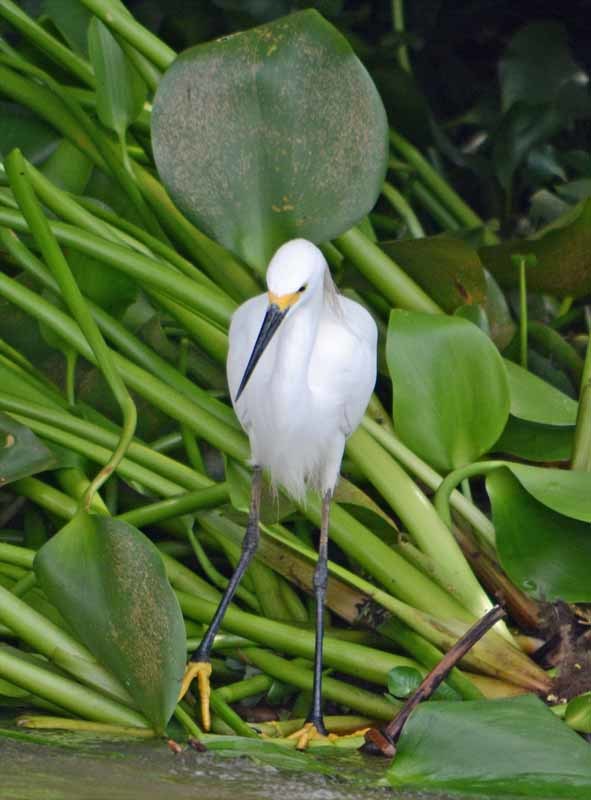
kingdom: Animalia
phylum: Chordata
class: Aves
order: Pelecaniformes
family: Ardeidae
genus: Egretta
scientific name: Egretta thula
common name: Snowy egret
